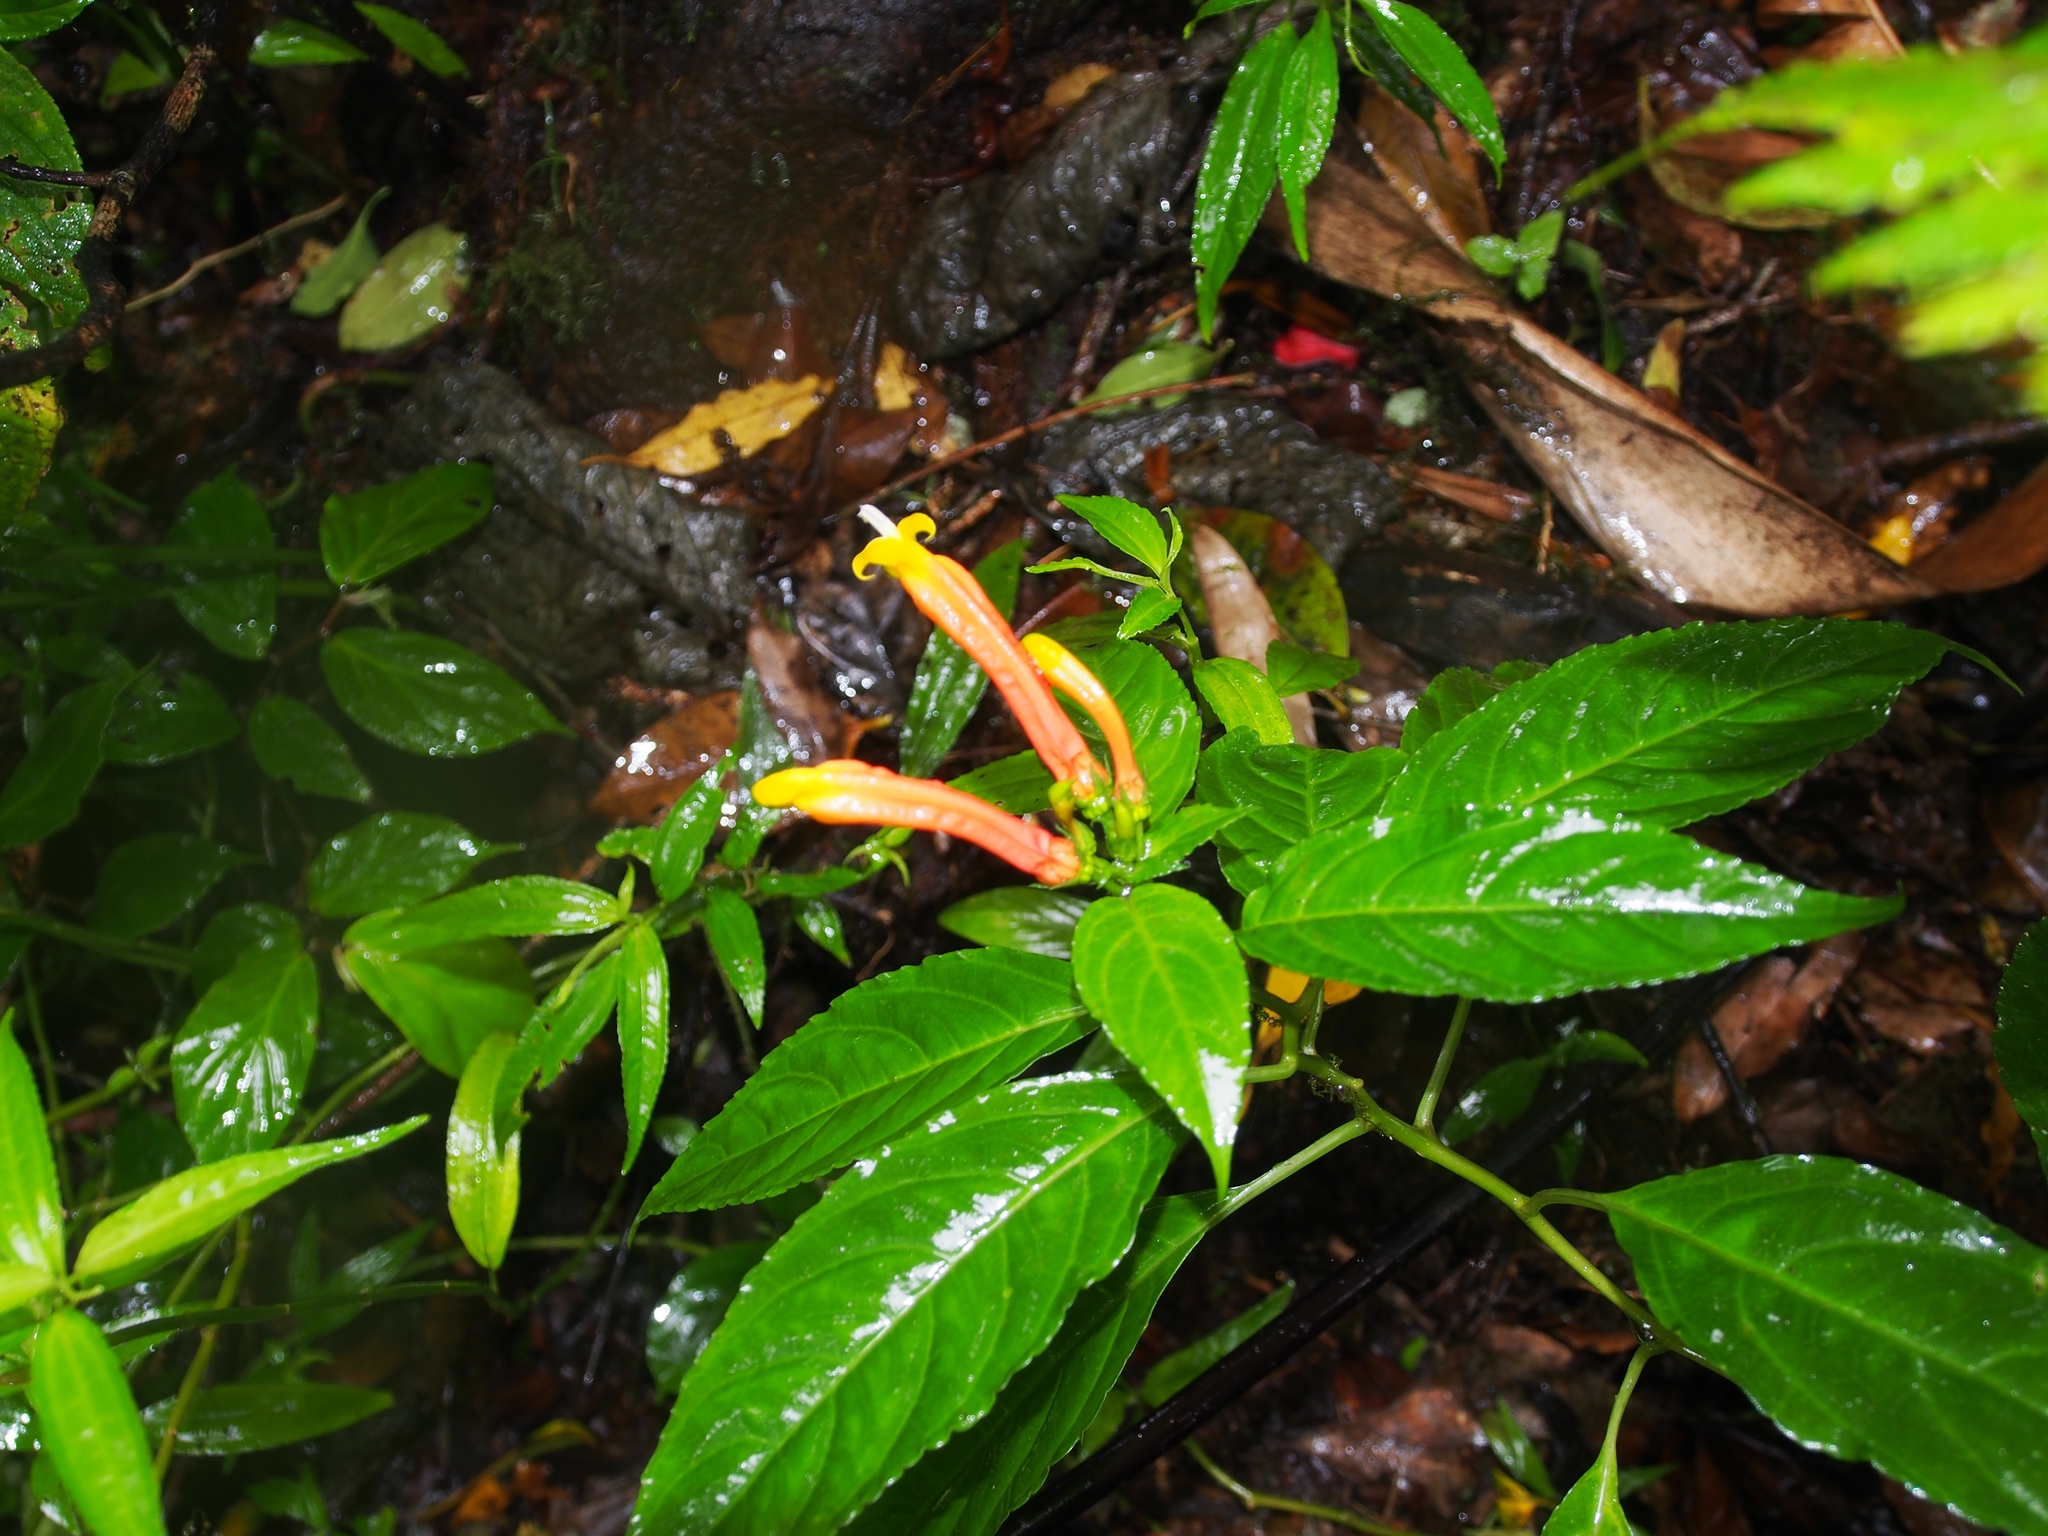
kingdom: Plantae
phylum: Tracheophyta
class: Magnoliopsida
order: Asterales
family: Campanulaceae
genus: Centropogon
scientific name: Centropogon solanifolius
